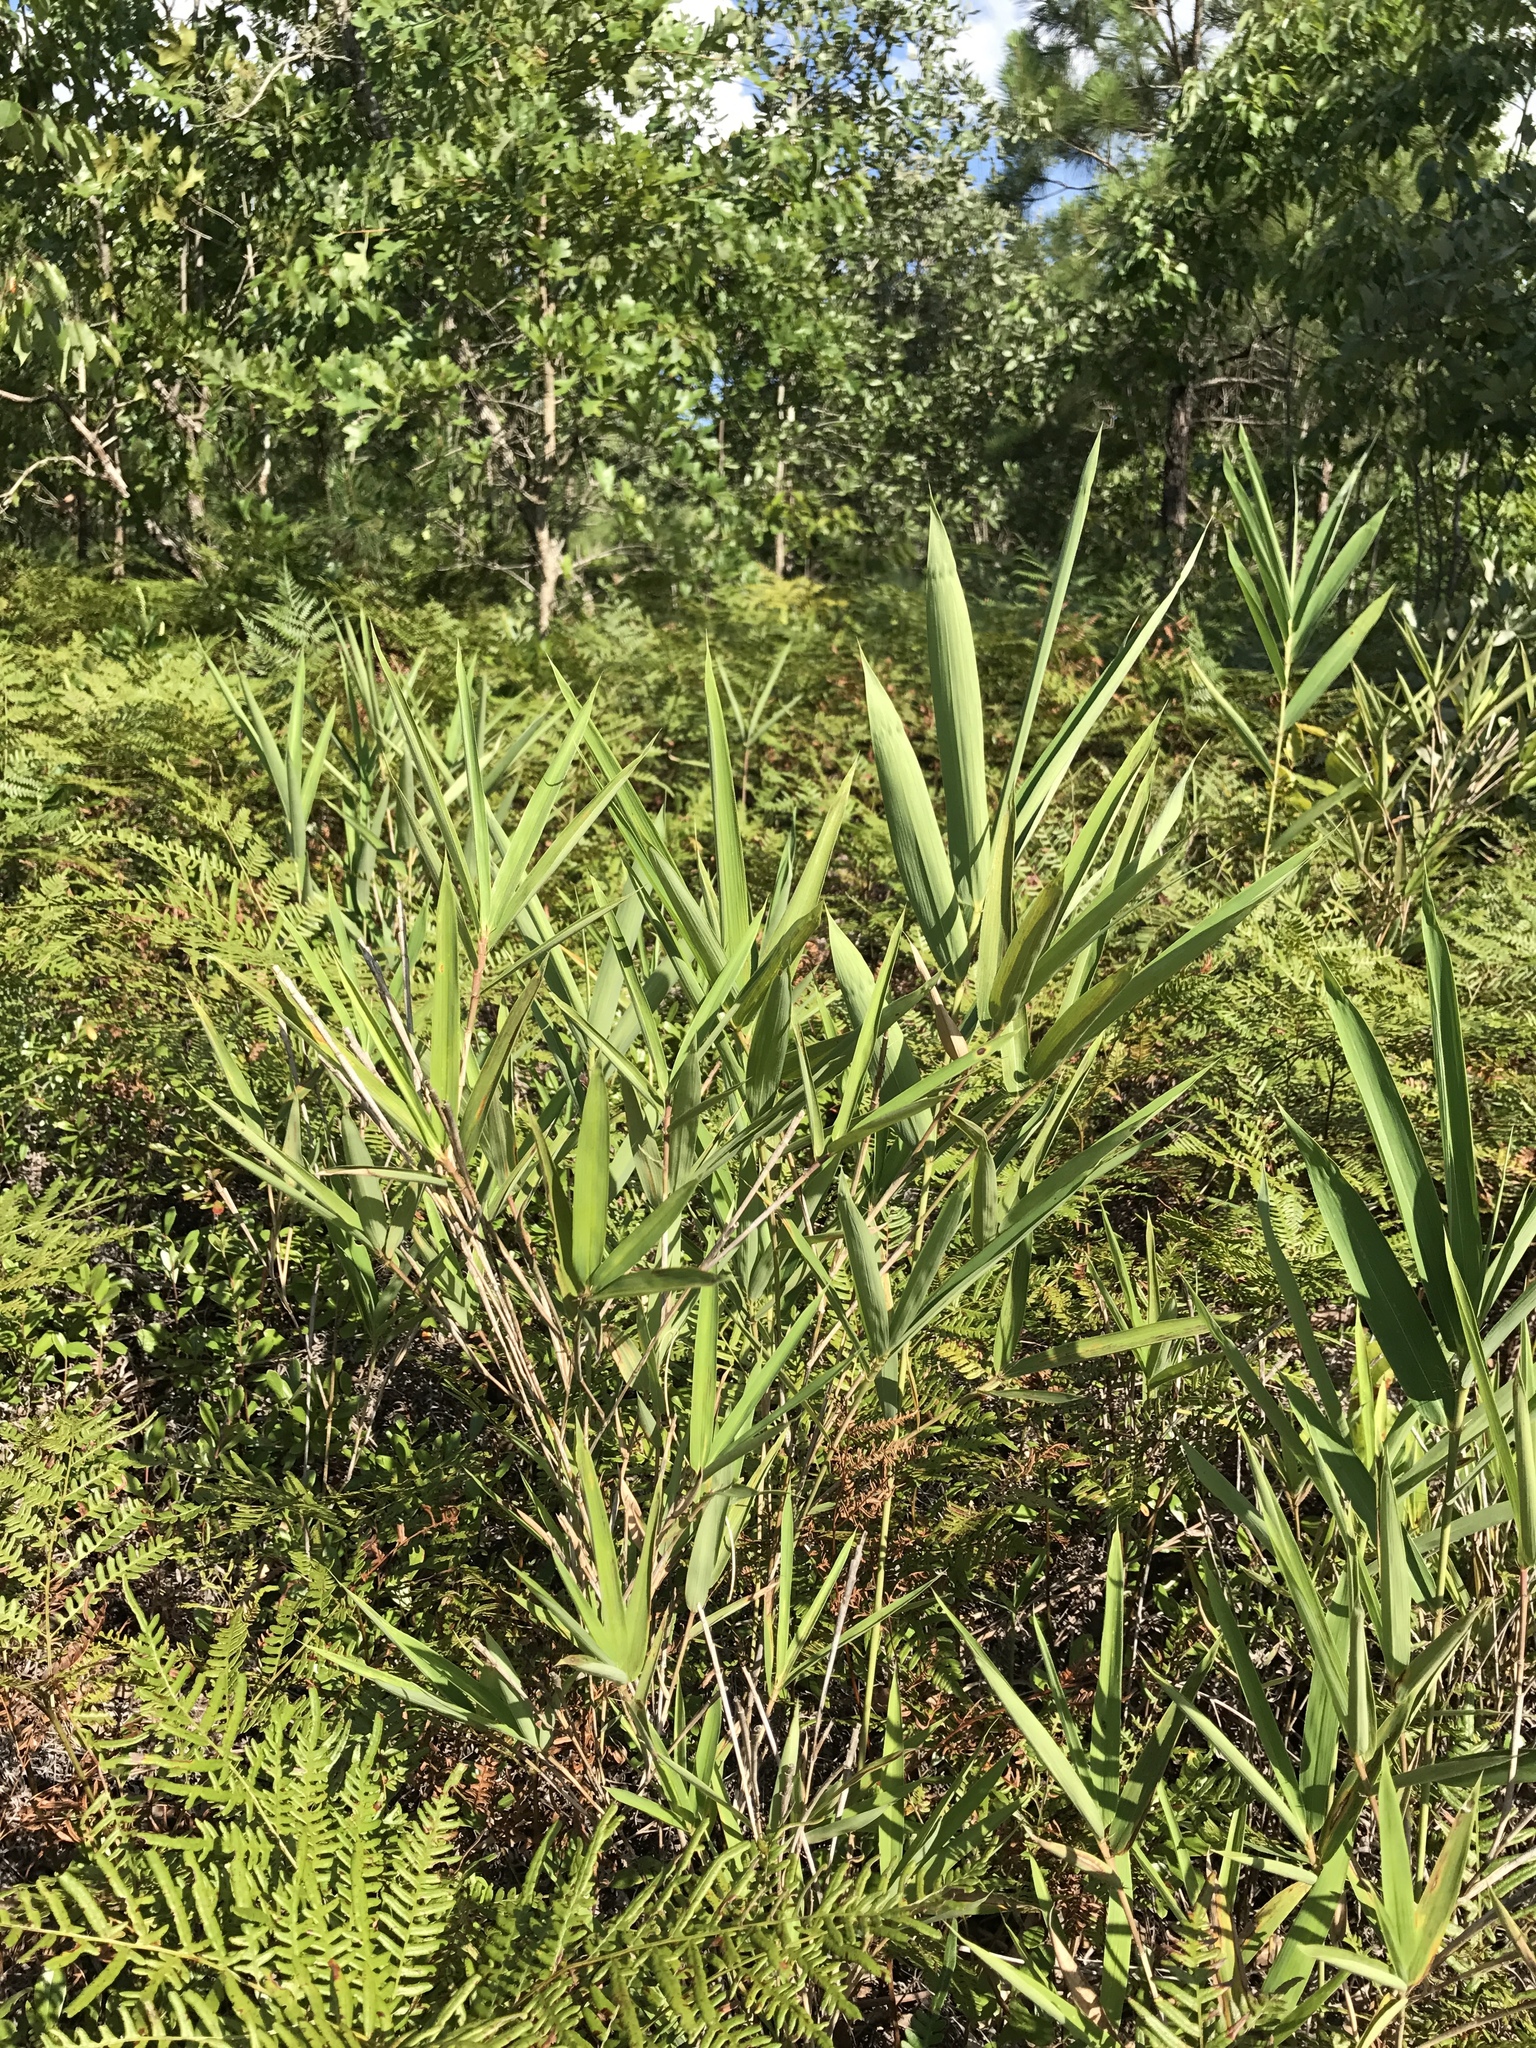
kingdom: Plantae
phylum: Tracheophyta
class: Liliopsida
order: Poales
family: Poaceae
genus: Arundinaria
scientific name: Arundinaria tecta
